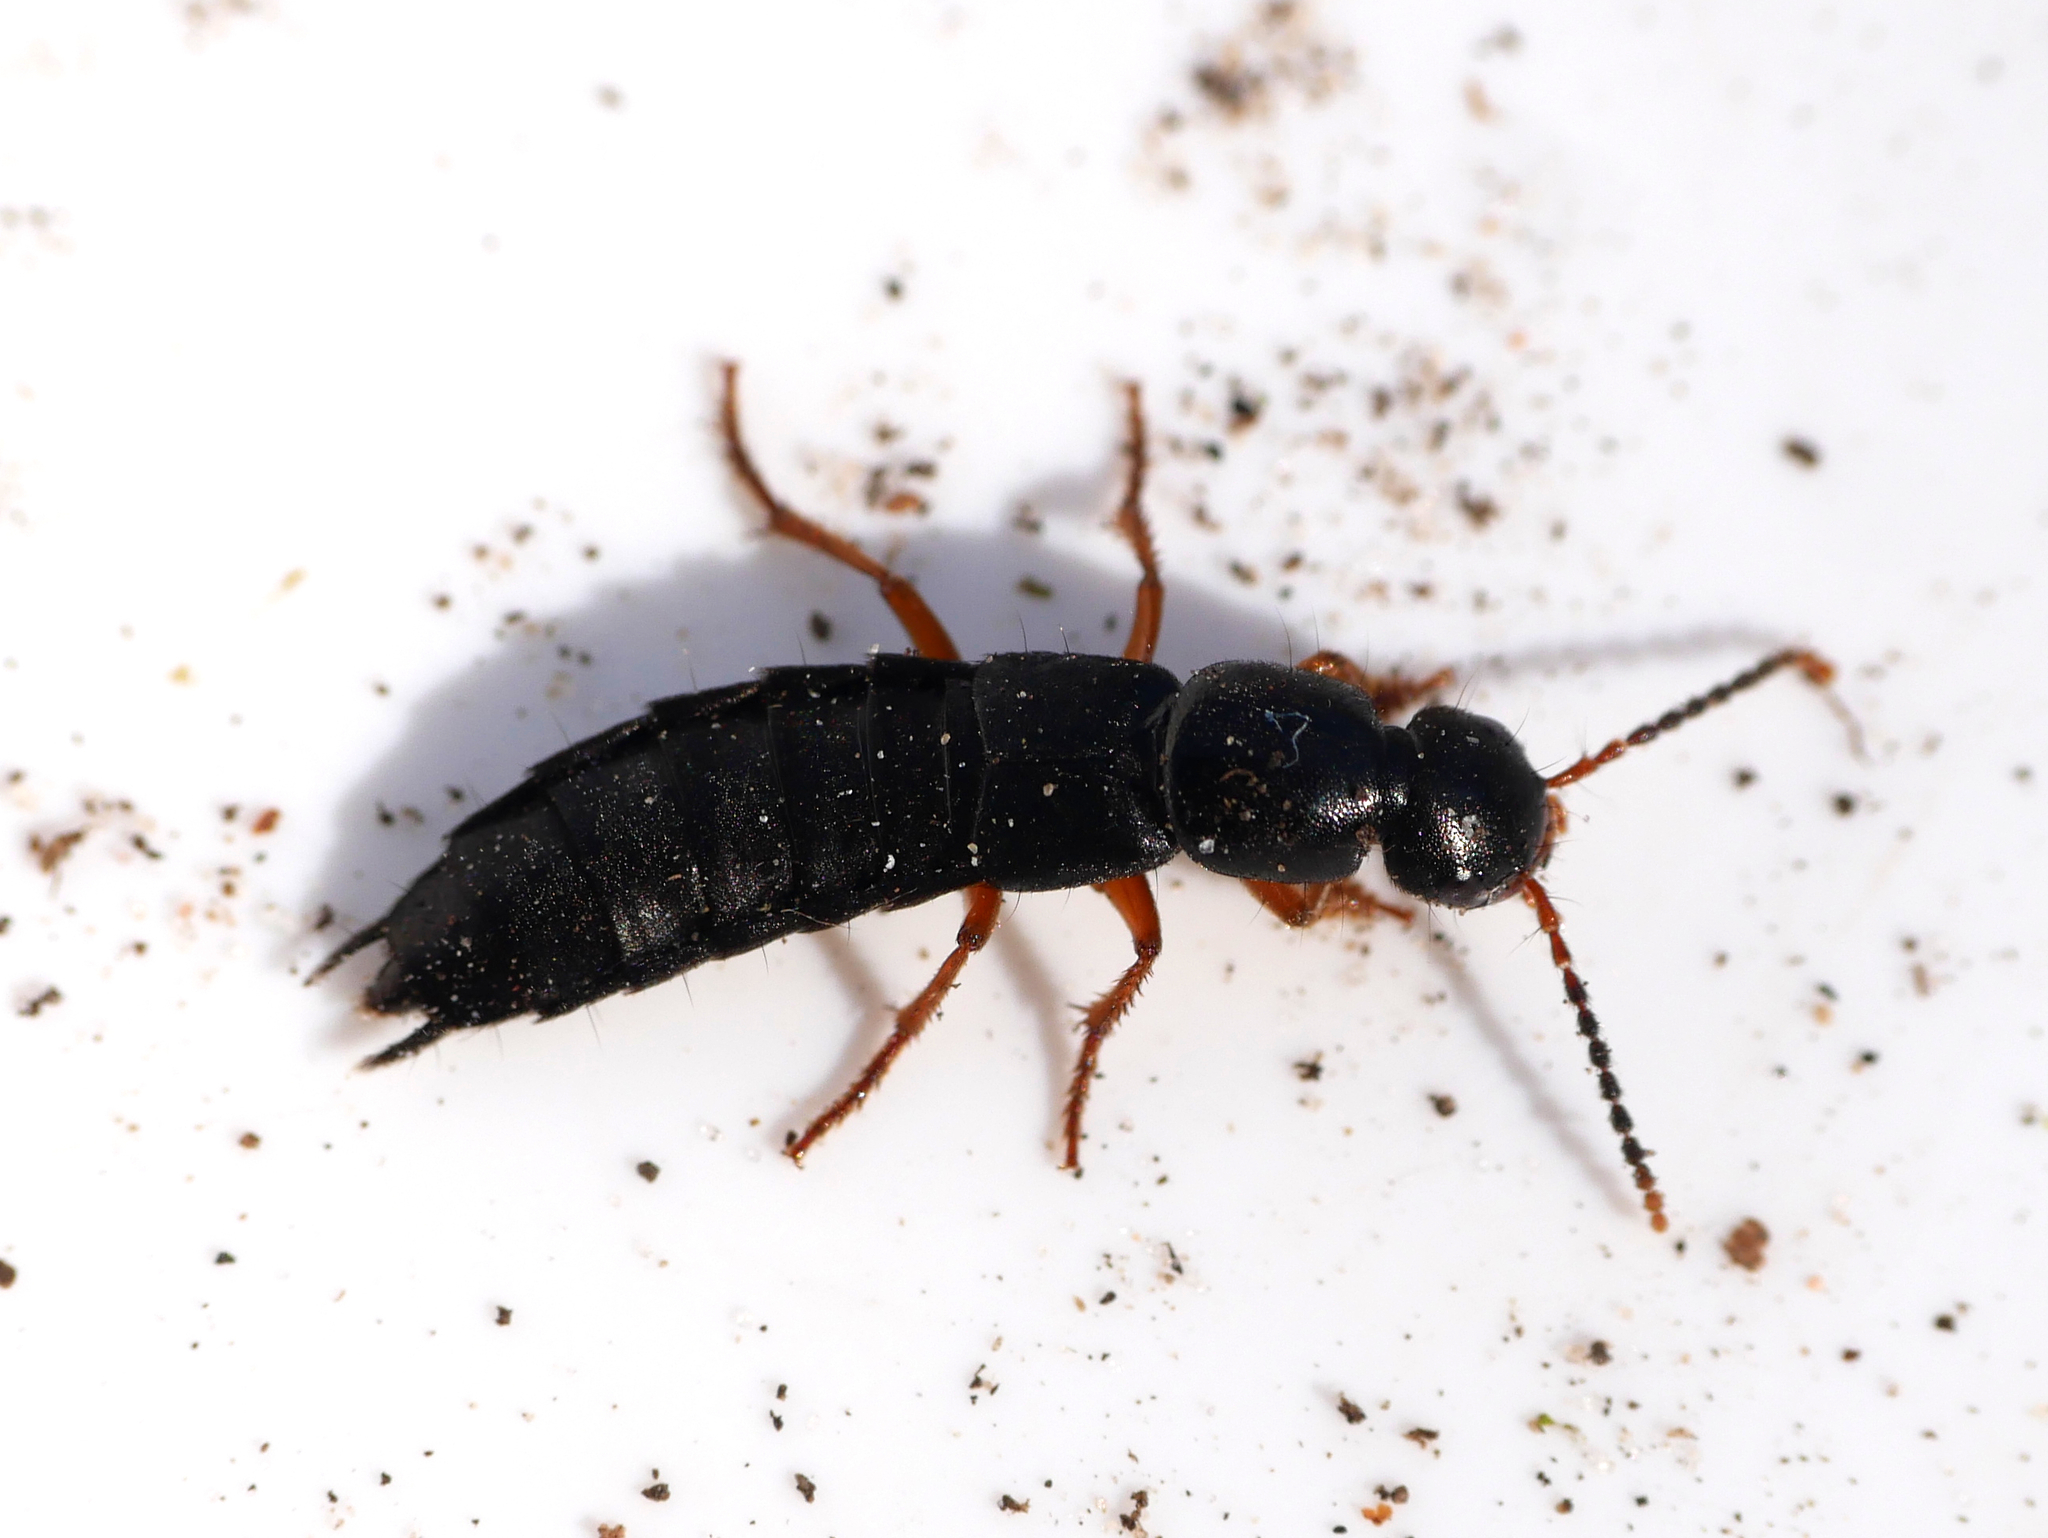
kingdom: Animalia
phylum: Arthropoda
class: Insecta
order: Coleoptera
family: Staphylinidae
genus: Ocypus
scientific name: Ocypus brunnipes
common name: Rove beetle
